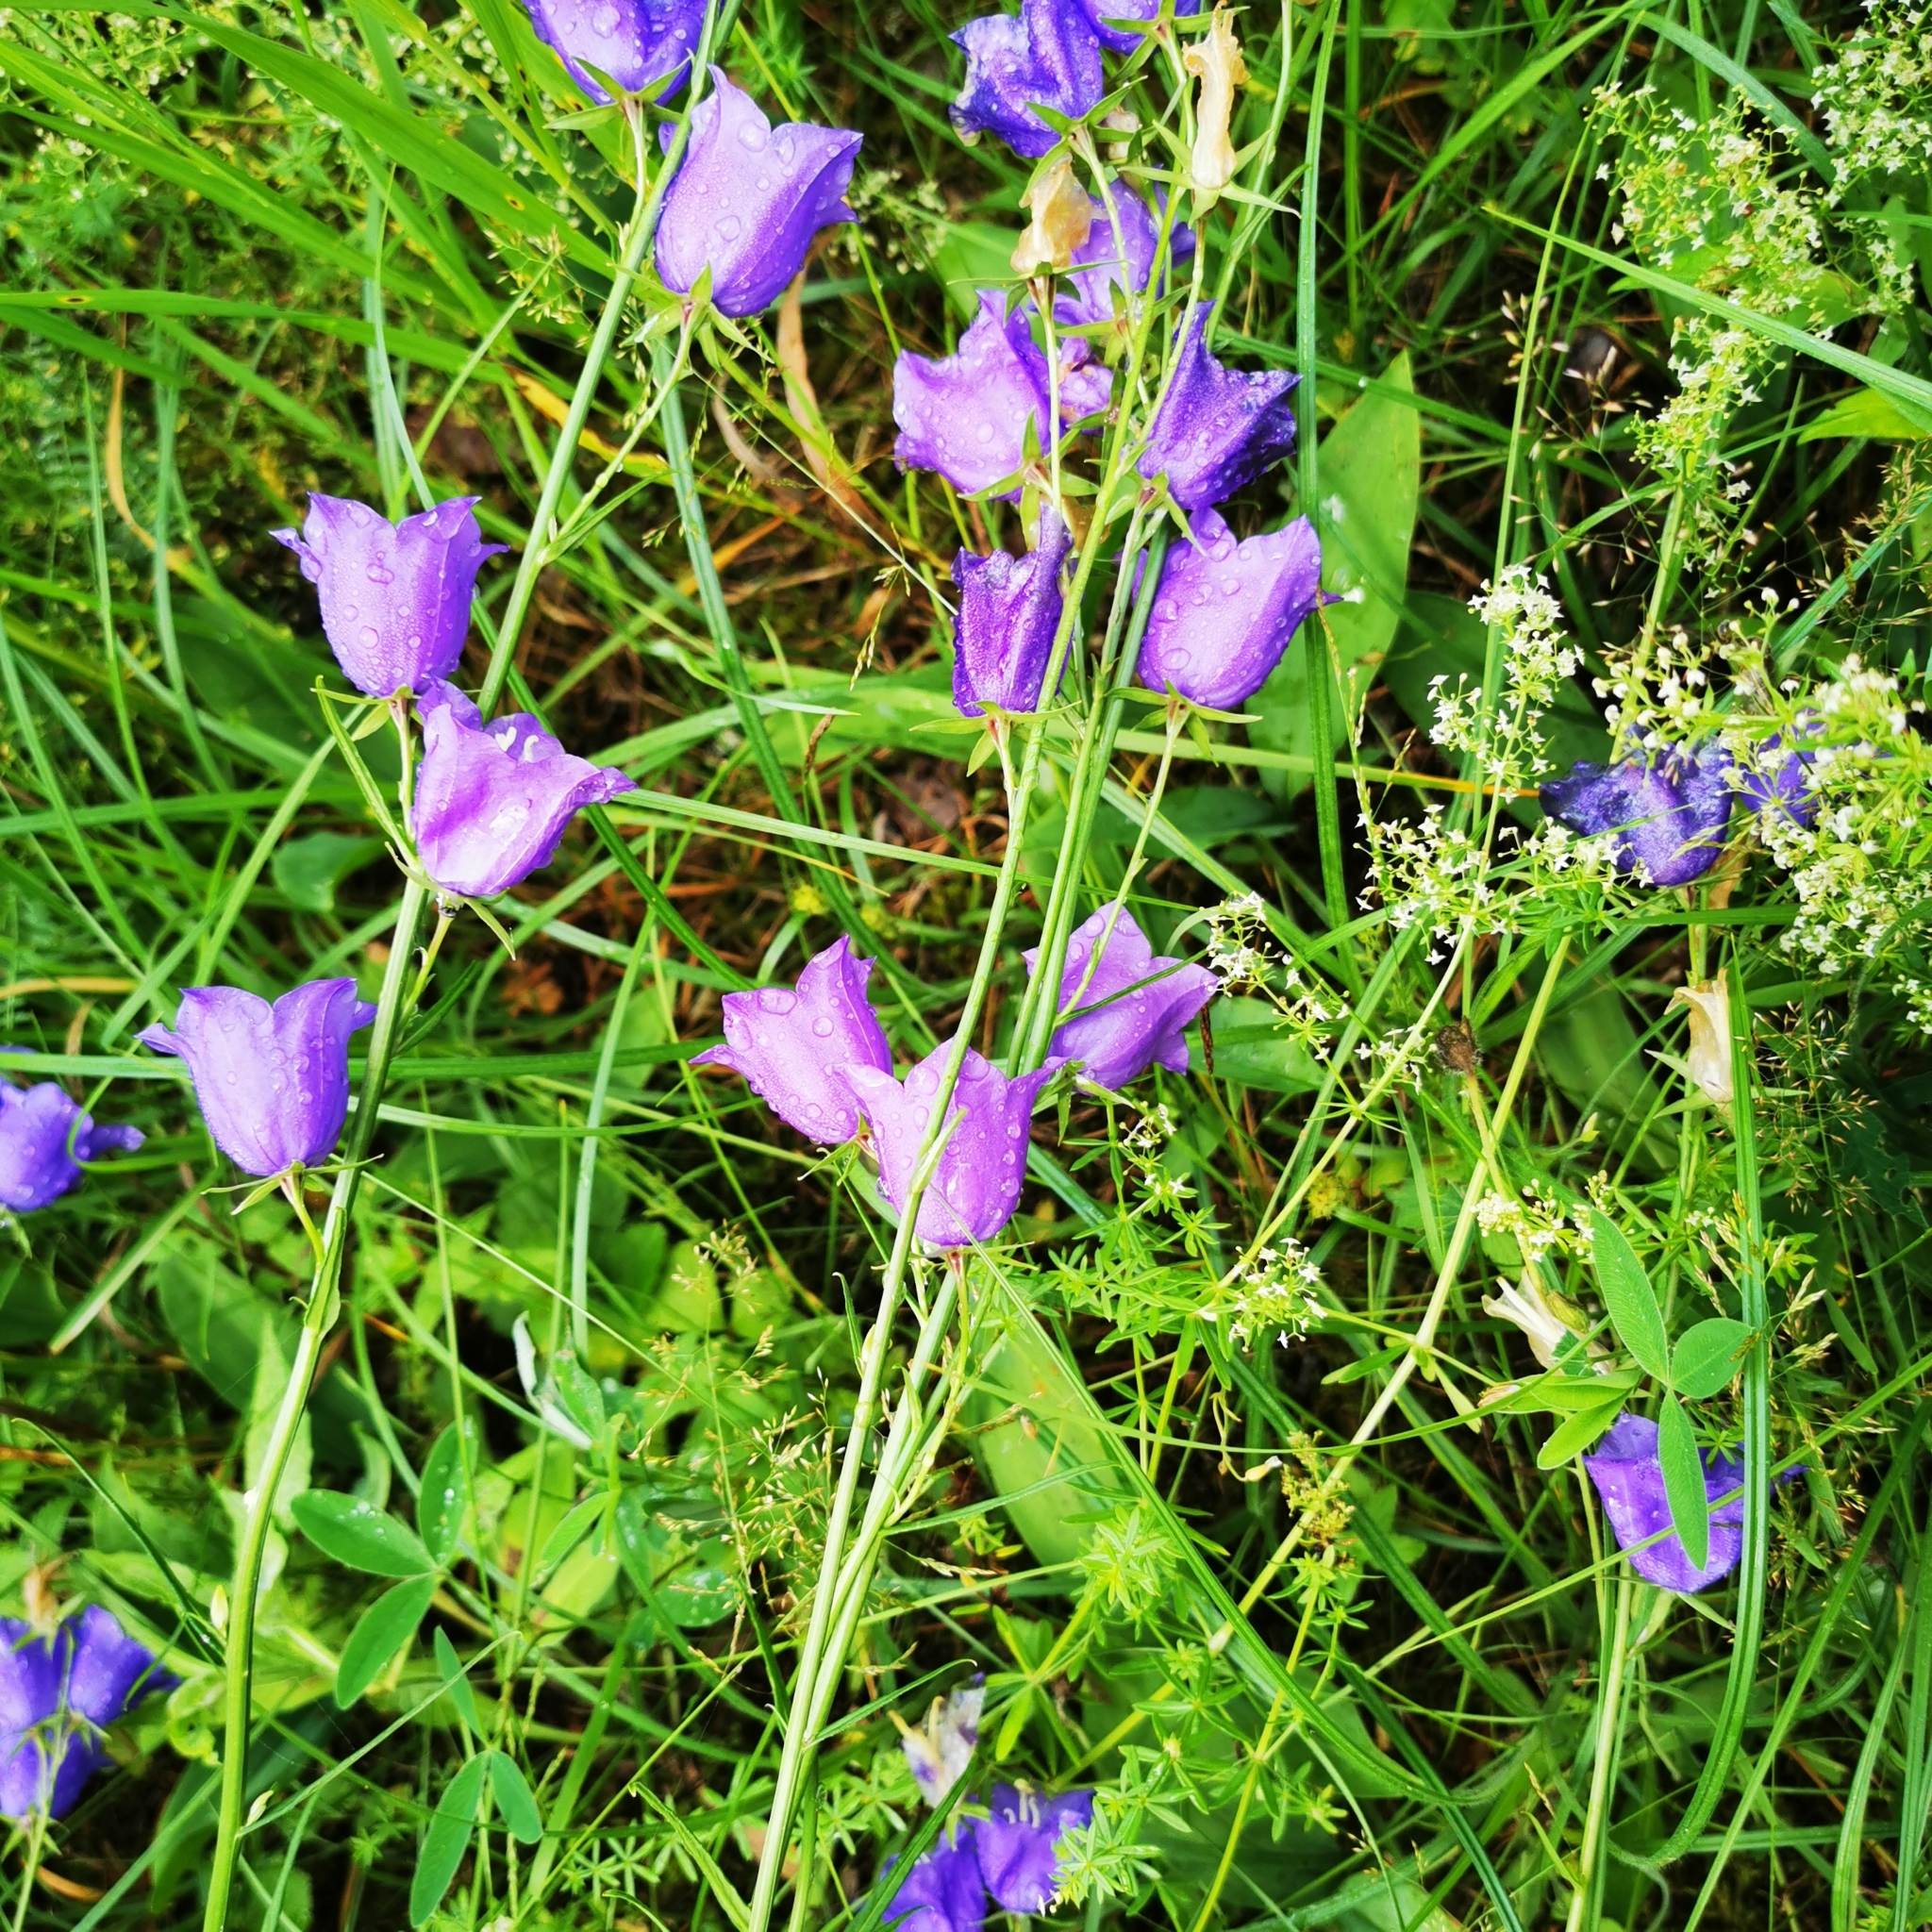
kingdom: Plantae
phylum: Tracheophyta
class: Magnoliopsida
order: Asterales
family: Campanulaceae
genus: Campanula
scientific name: Campanula persicifolia
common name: Peach-leaved bellflower
